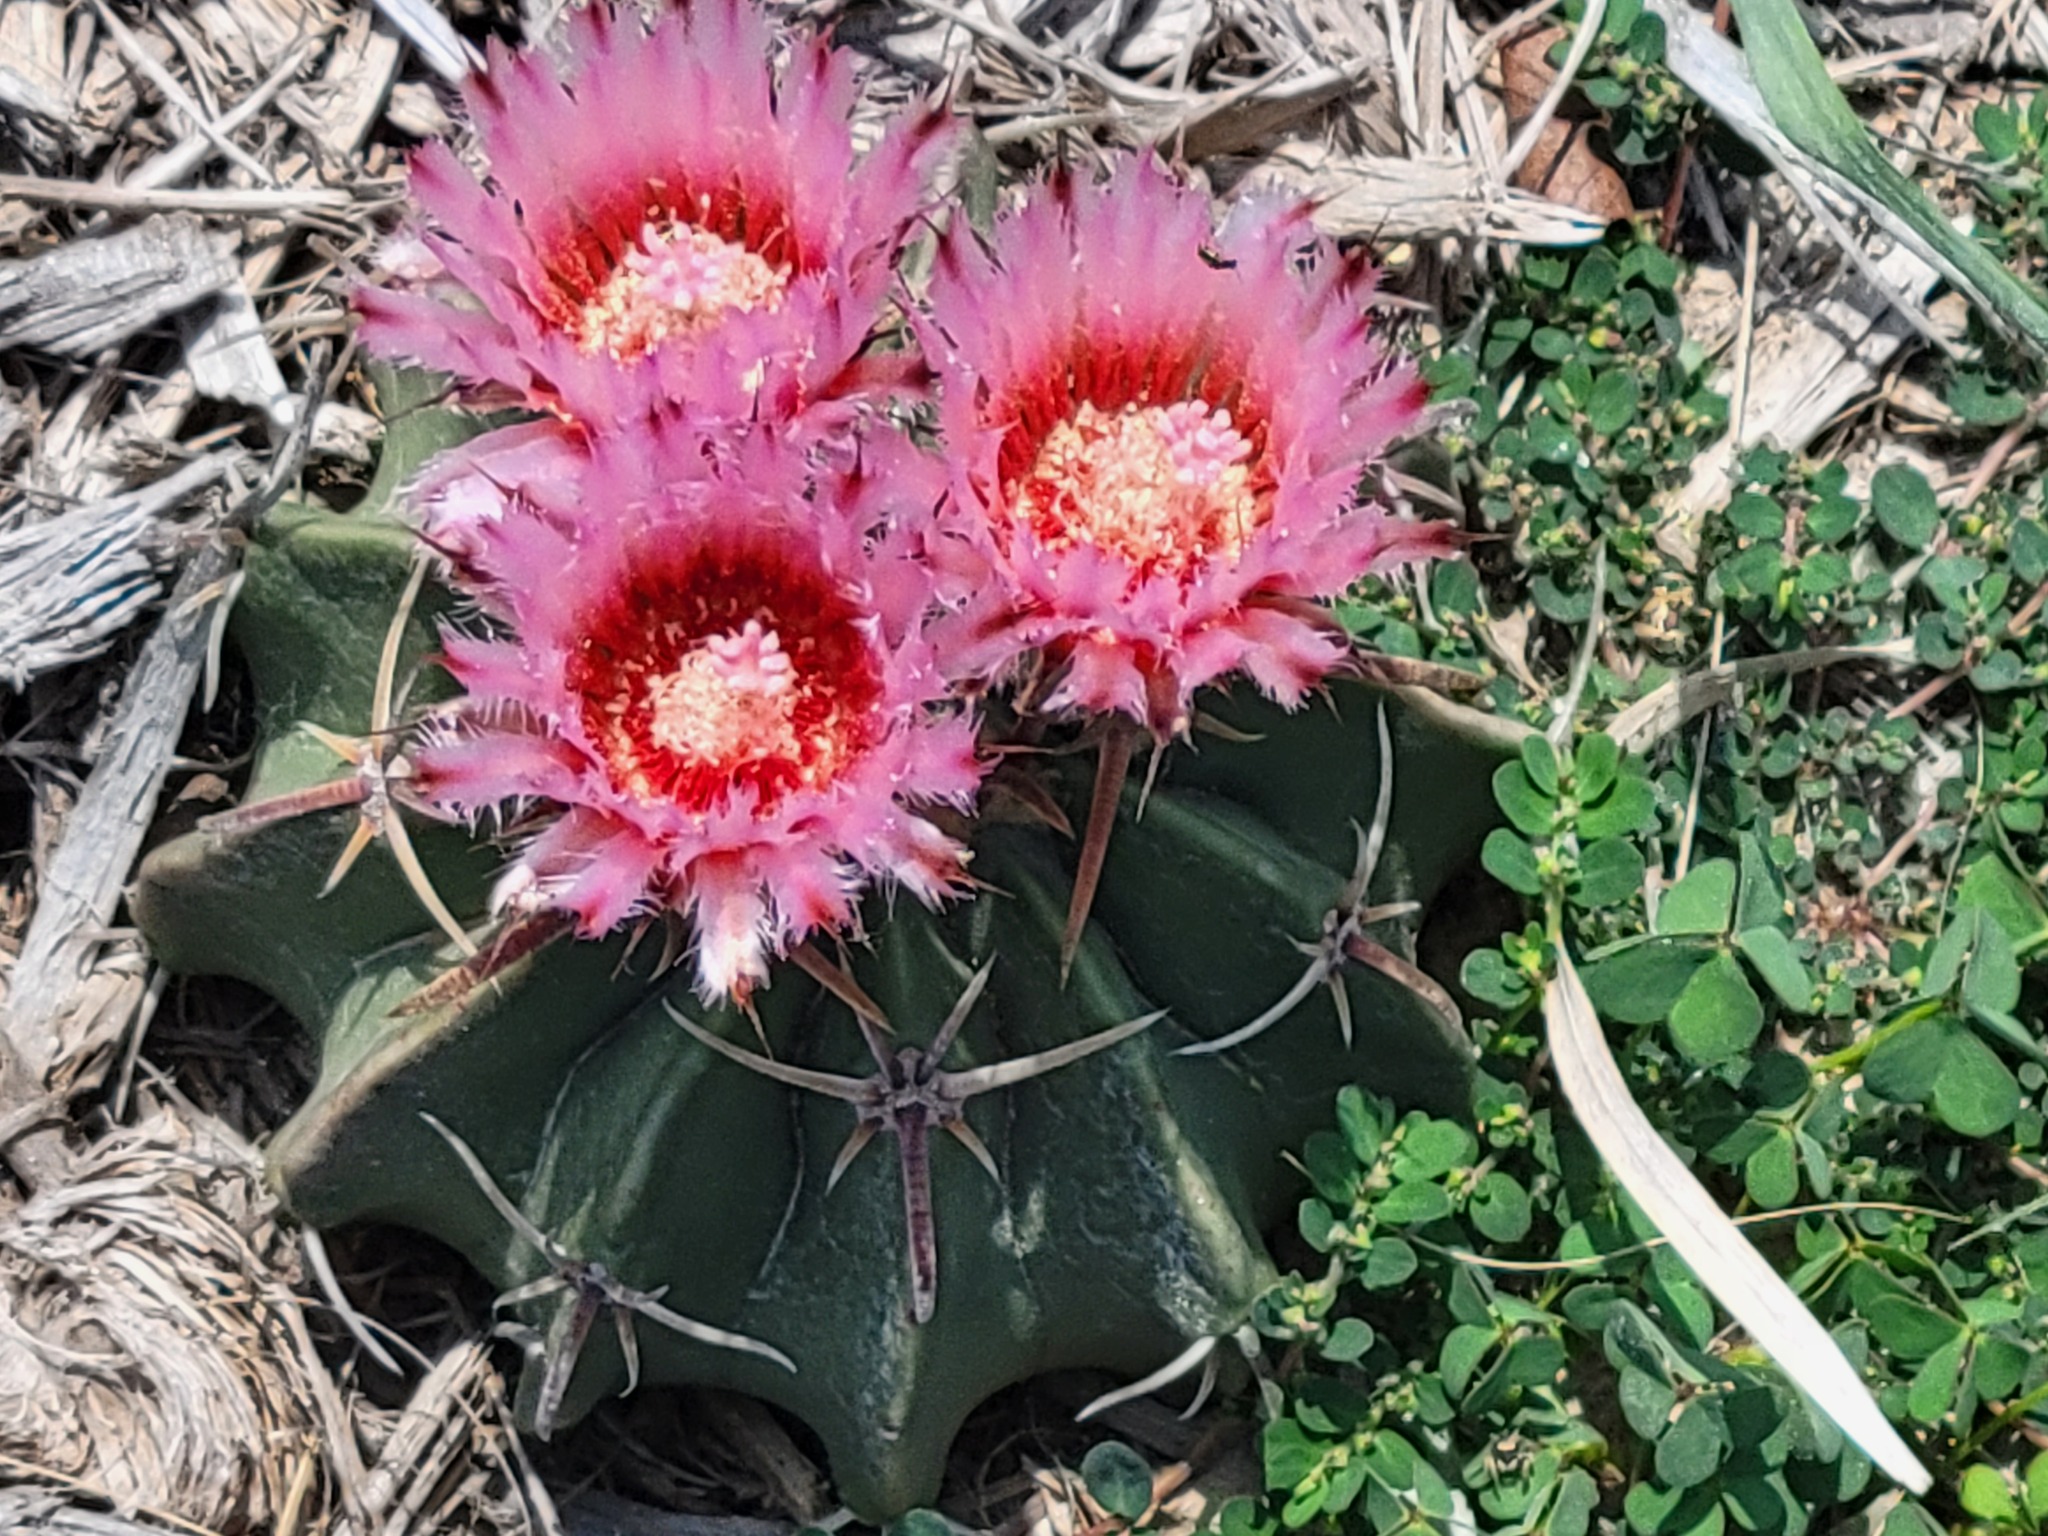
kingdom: Plantae
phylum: Tracheophyta
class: Magnoliopsida
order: Caryophyllales
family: Cactaceae
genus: Echinocactus
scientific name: Echinocactus texensis
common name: Devil's pincushion
